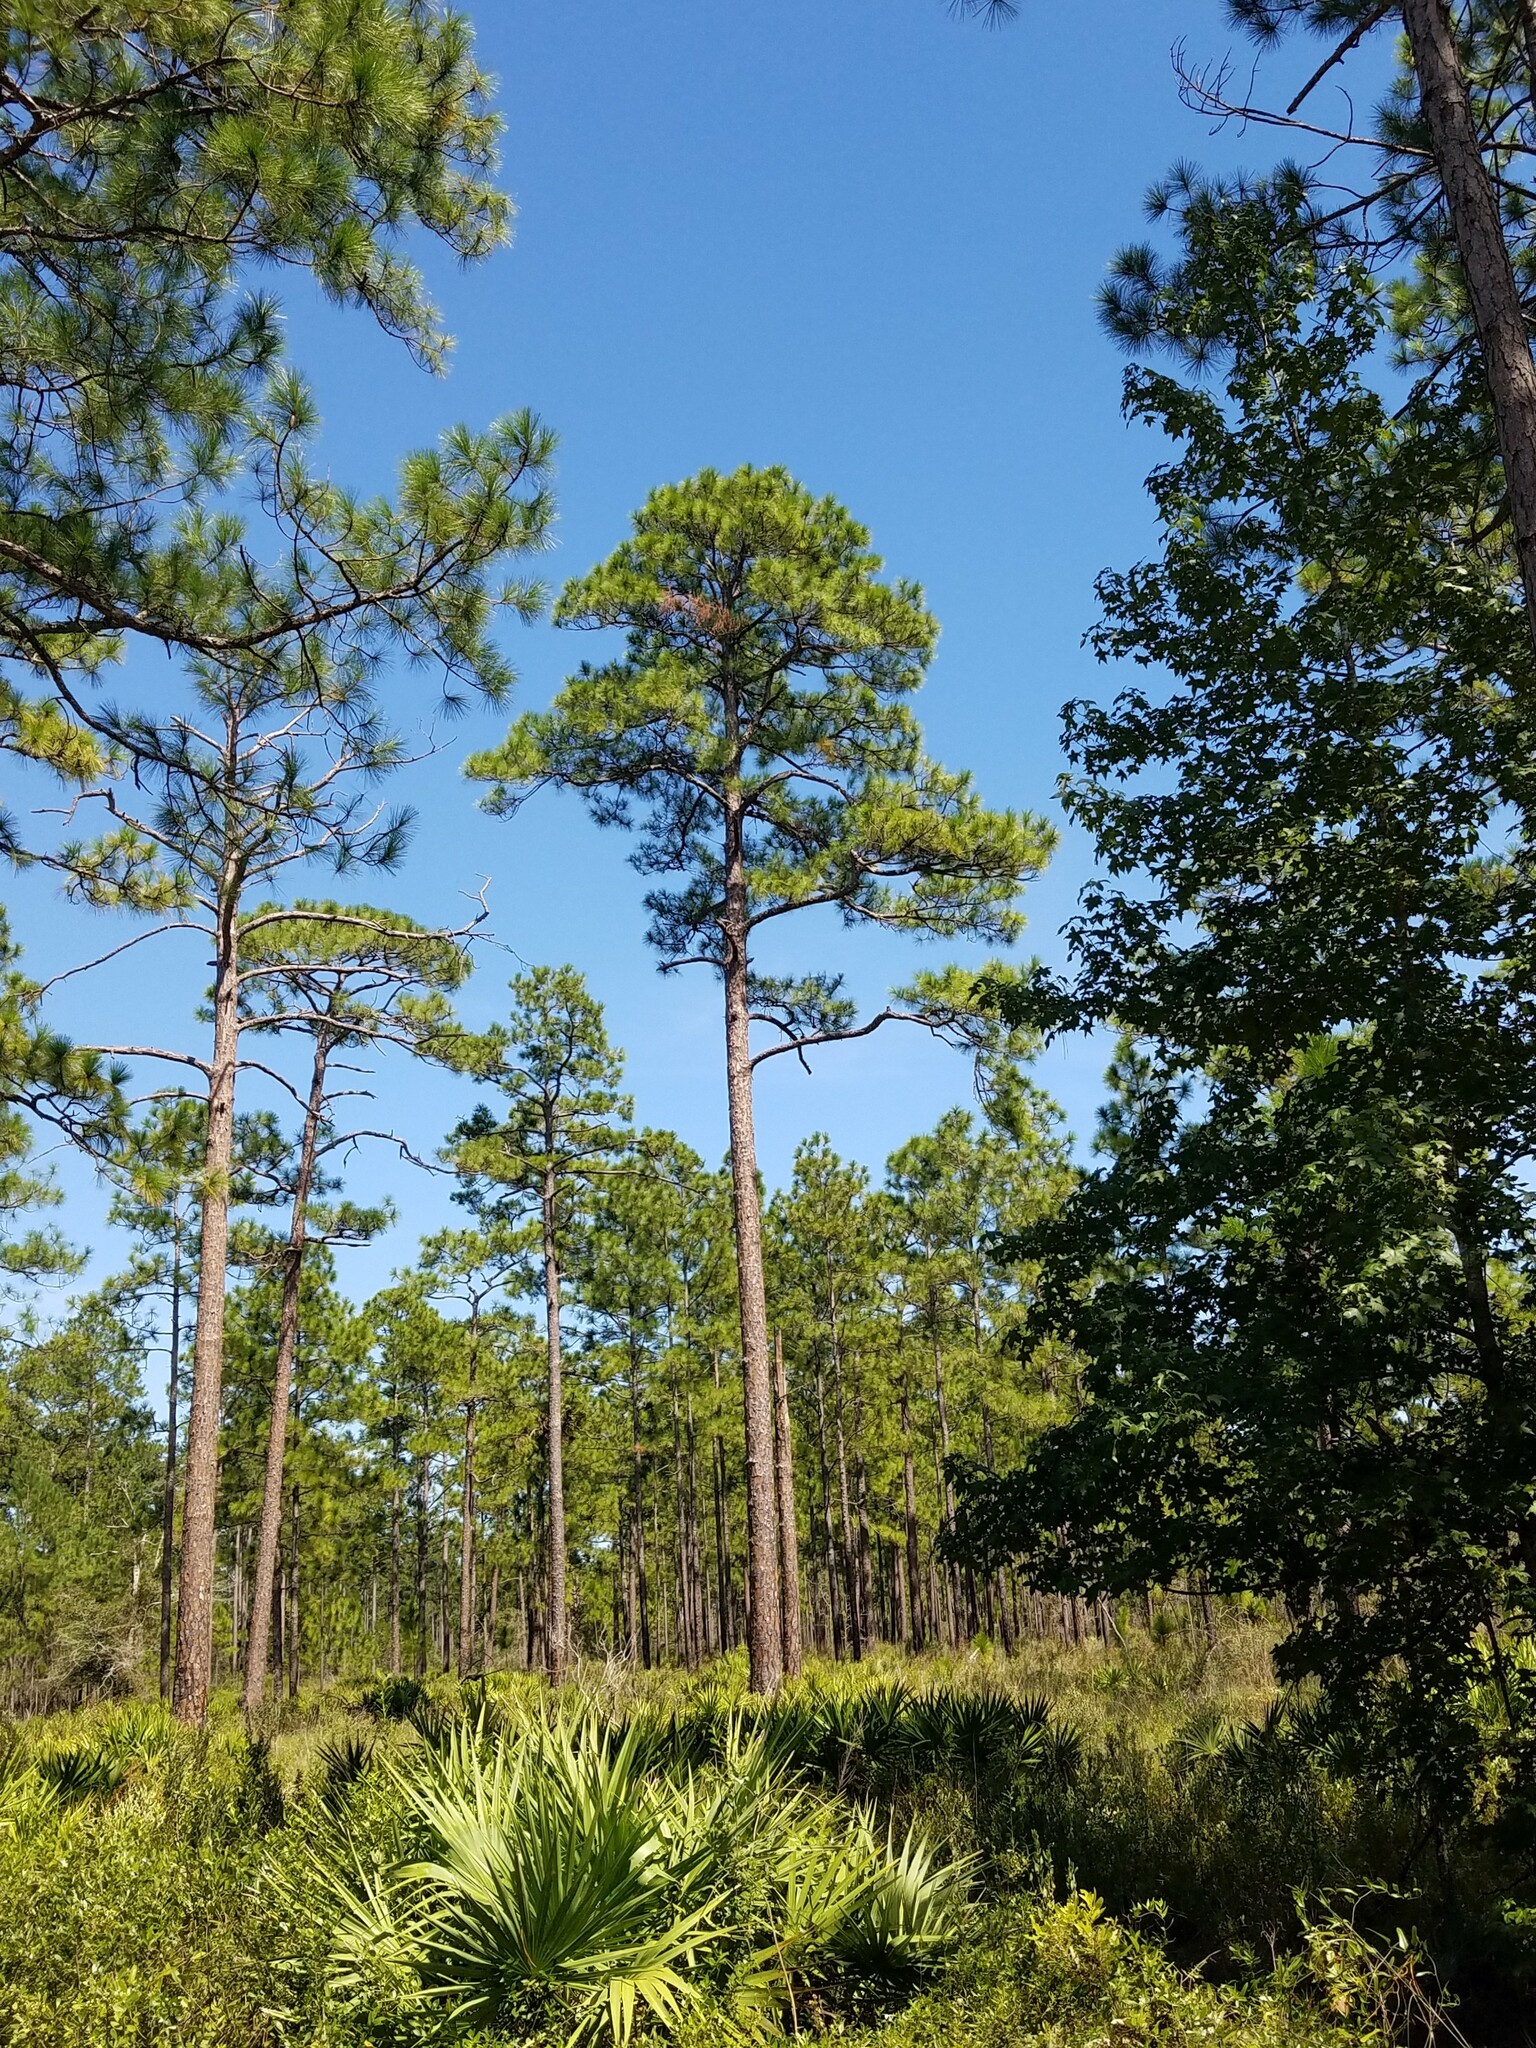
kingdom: Plantae
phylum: Tracheophyta
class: Pinopsida
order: Pinales
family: Pinaceae
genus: Pinus
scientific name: Pinus elliottii
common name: Slash pine
